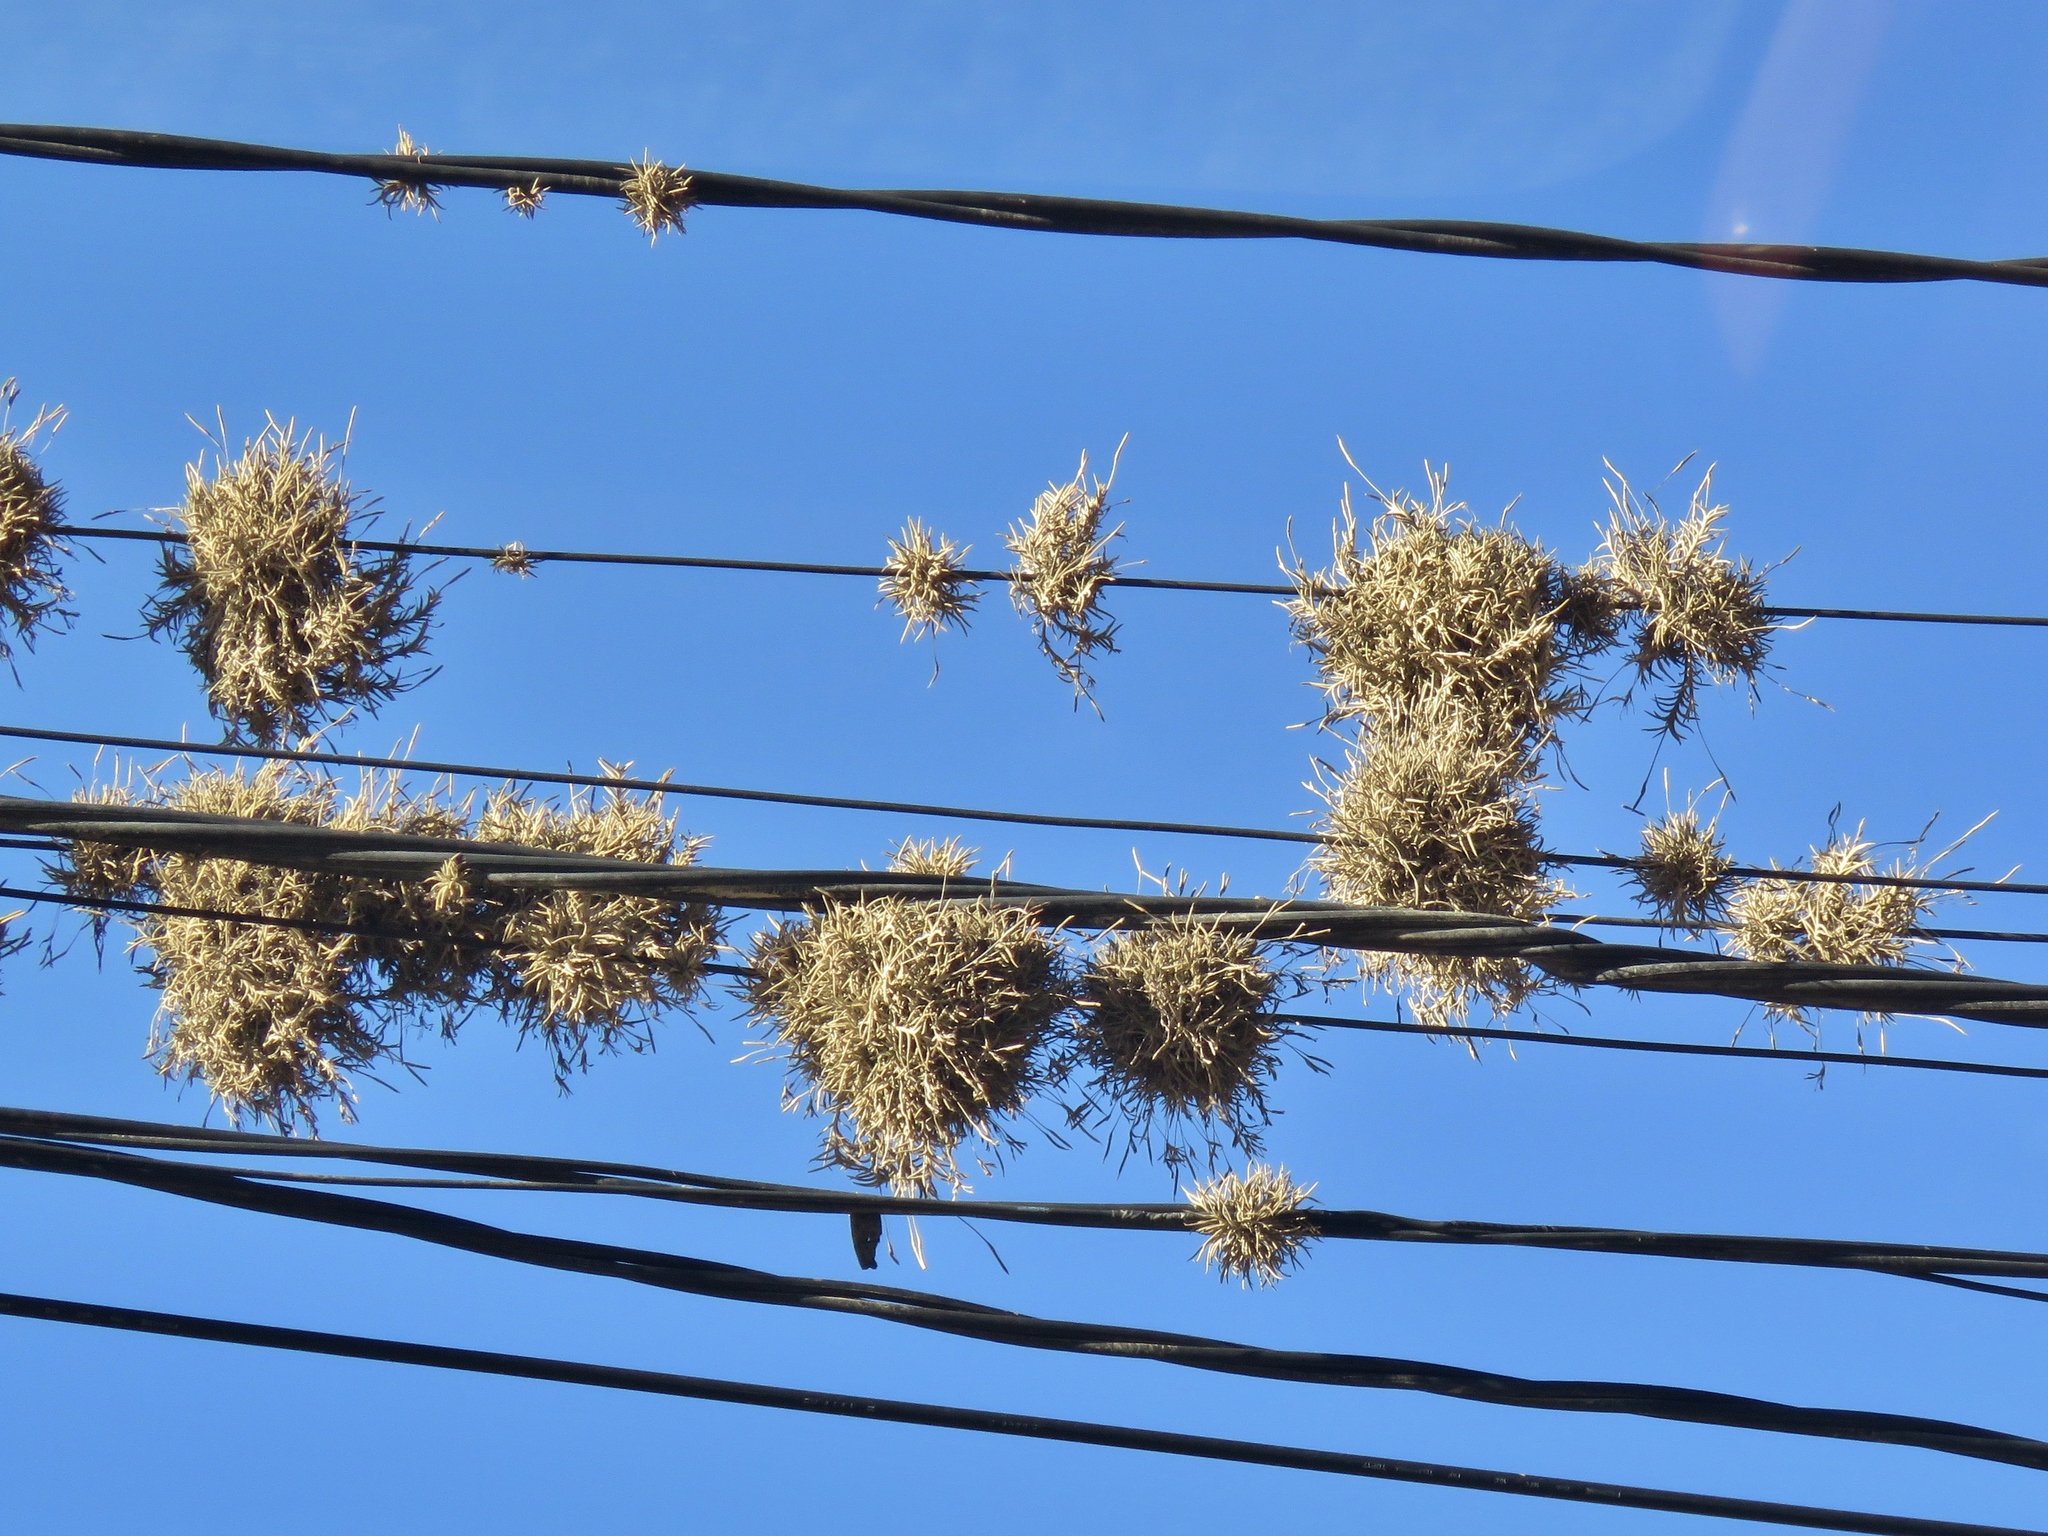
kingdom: Plantae
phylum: Tracheophyta
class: Liliopsida
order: Poales
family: Bromeliaceae
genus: Tillandsia
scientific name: Tillandsia capillaris
